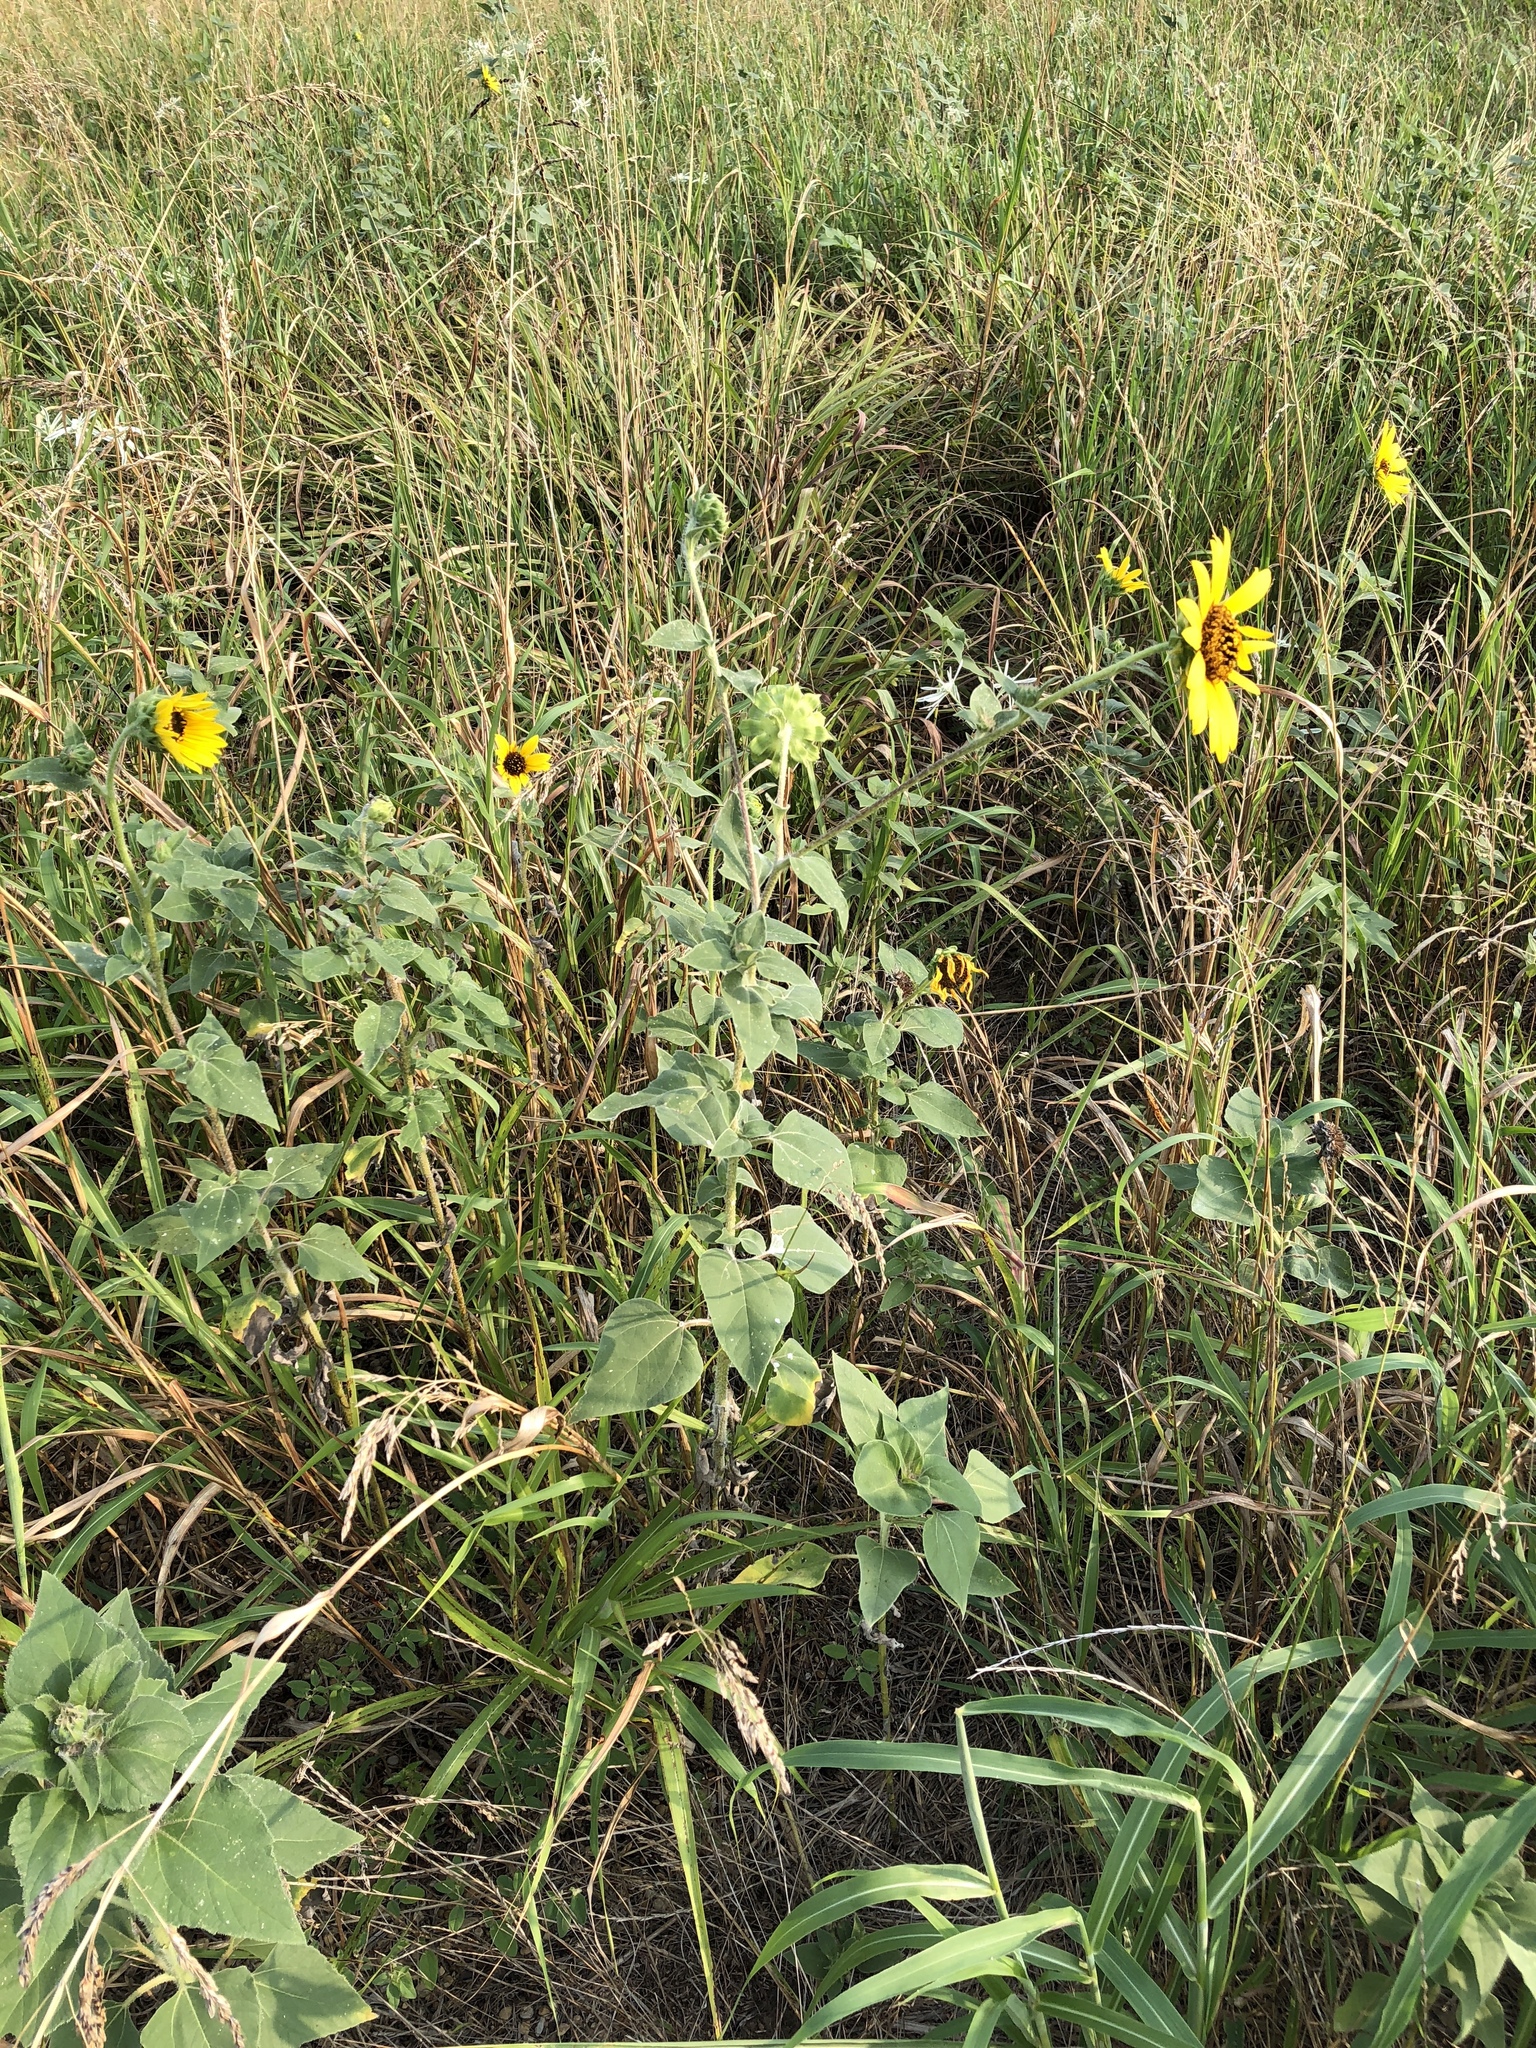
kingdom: Plantae
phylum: Tracheophyta
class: Magnoliopsida
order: Asterales
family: Asteraceae
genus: Helianthus
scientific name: Helianthus annuus
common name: Sunflower
